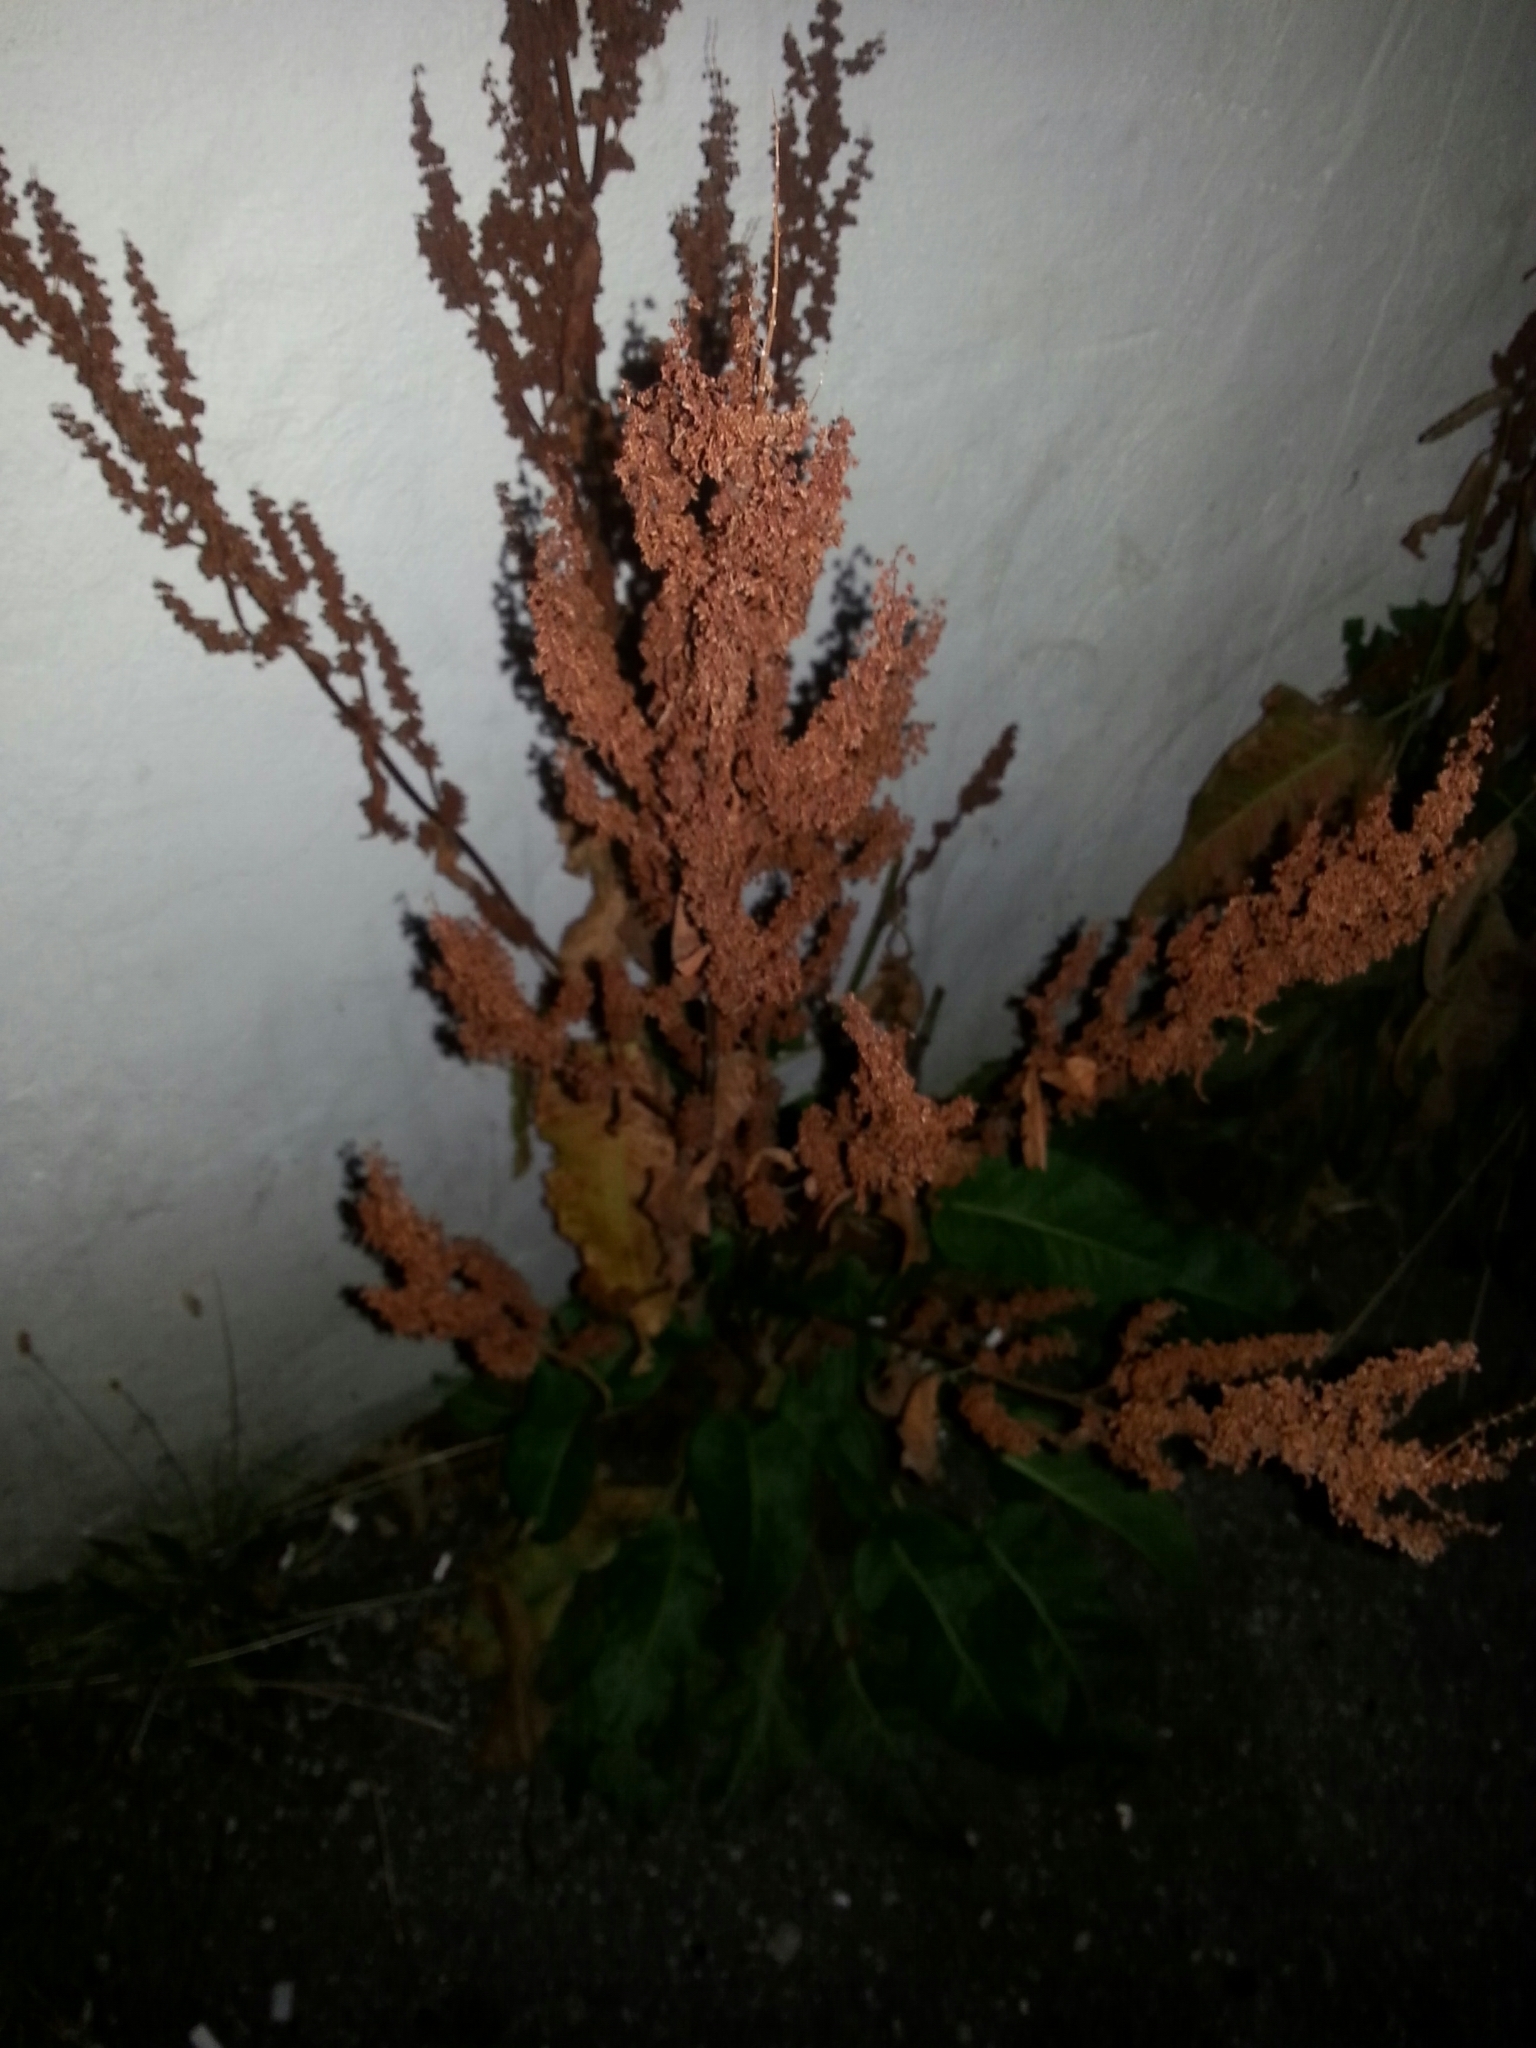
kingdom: Plantae
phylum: Tracheophyta
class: Magnoliopsida
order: Caryophyllales
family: Polygonaceae
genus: Rumex
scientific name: Rumex obtusifolius
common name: Bitter dock
